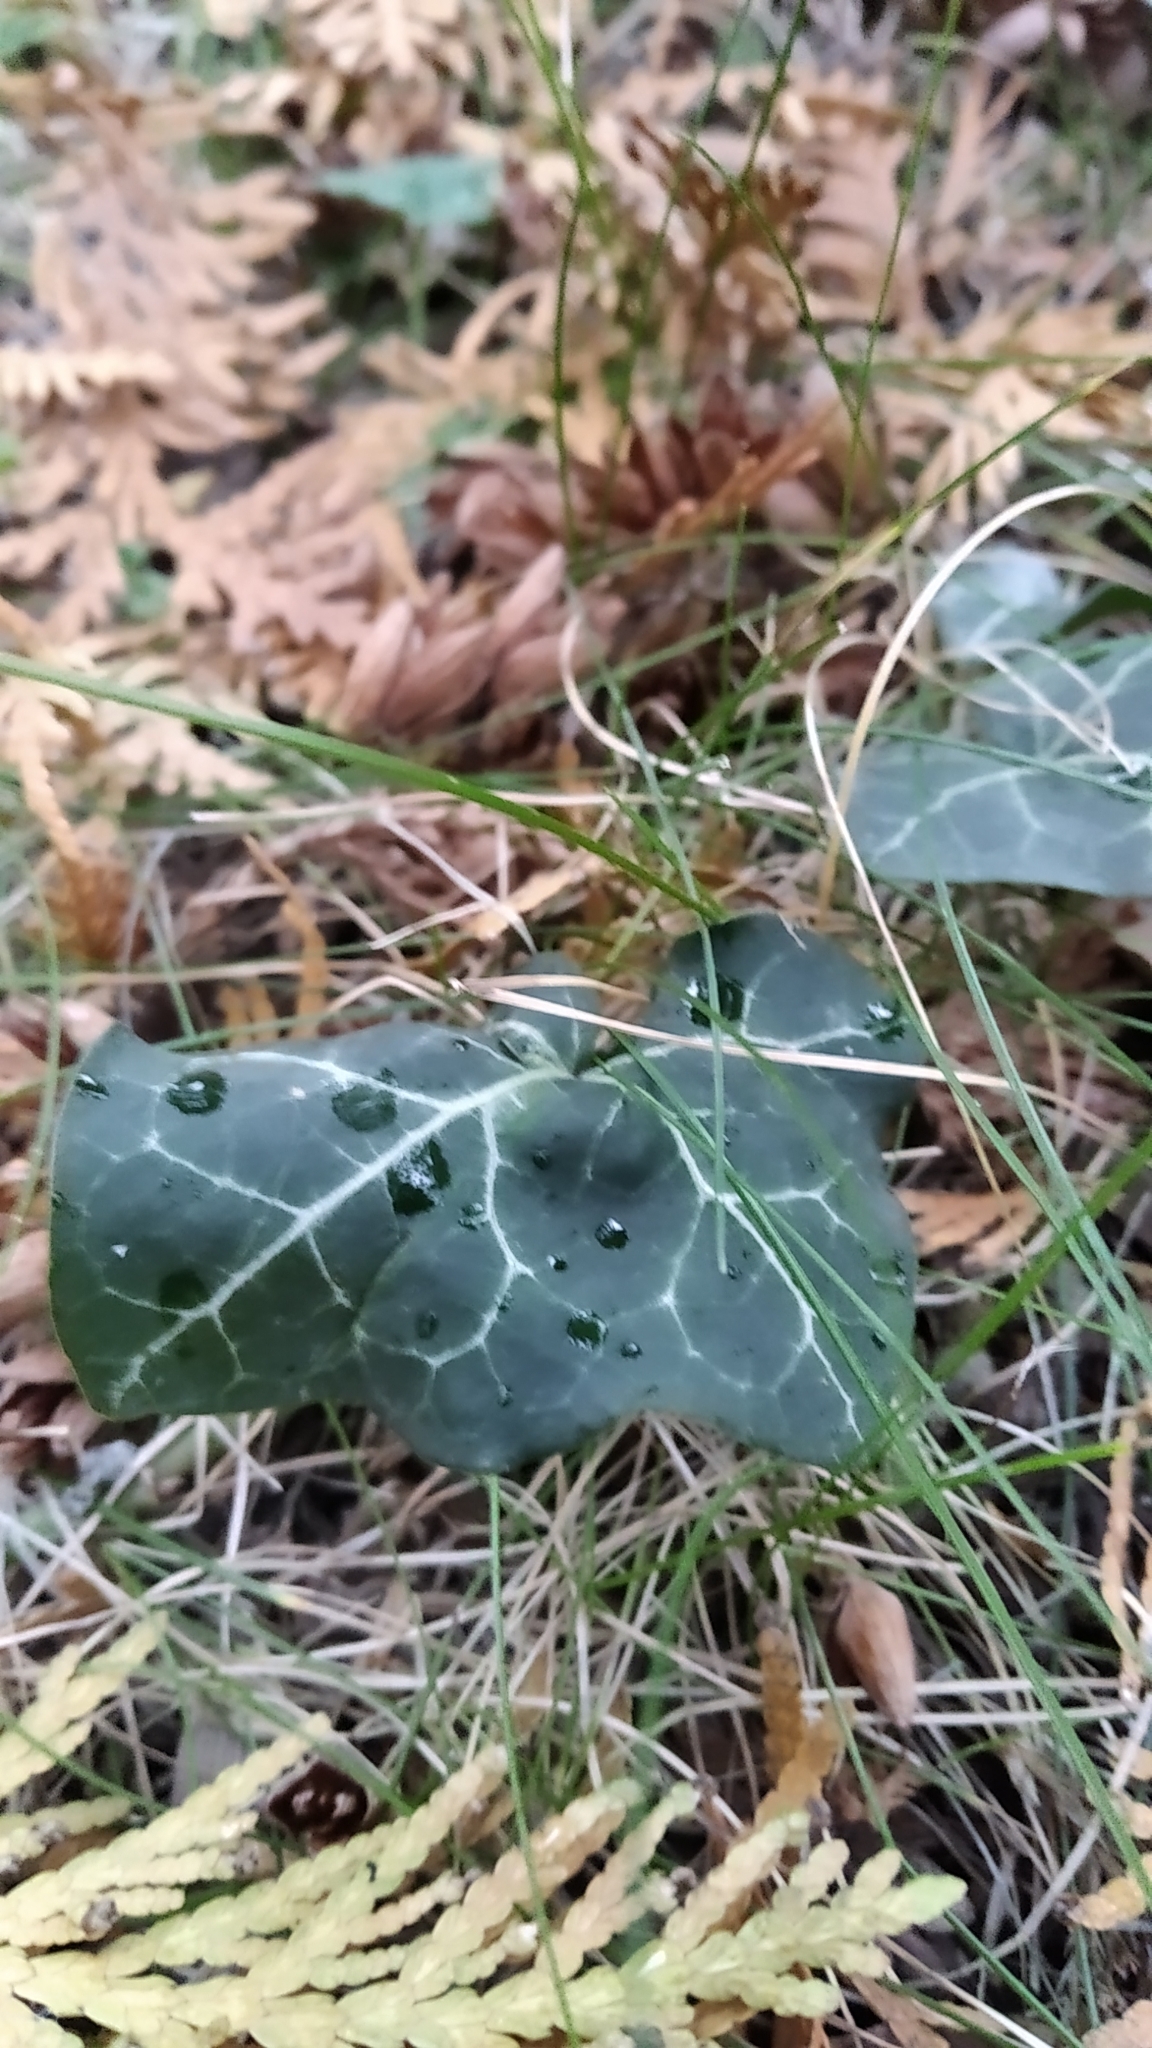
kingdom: Plantae
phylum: Tracheophyta
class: Magnoliopsida
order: Apiales
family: Araliaceae
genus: Hedera
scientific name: Hedera helix
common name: Ivy
